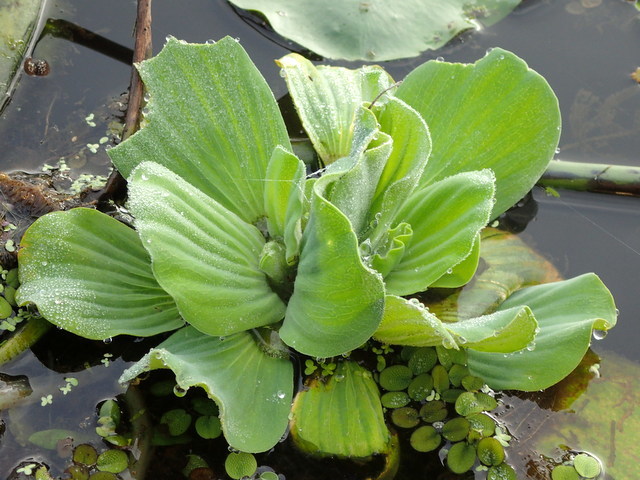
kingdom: Plantae
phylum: Tracheophyta
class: Liliopsida
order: Alismatales
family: Araceae
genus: Pistia
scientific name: Pistia stratiotes
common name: Water lettuce
